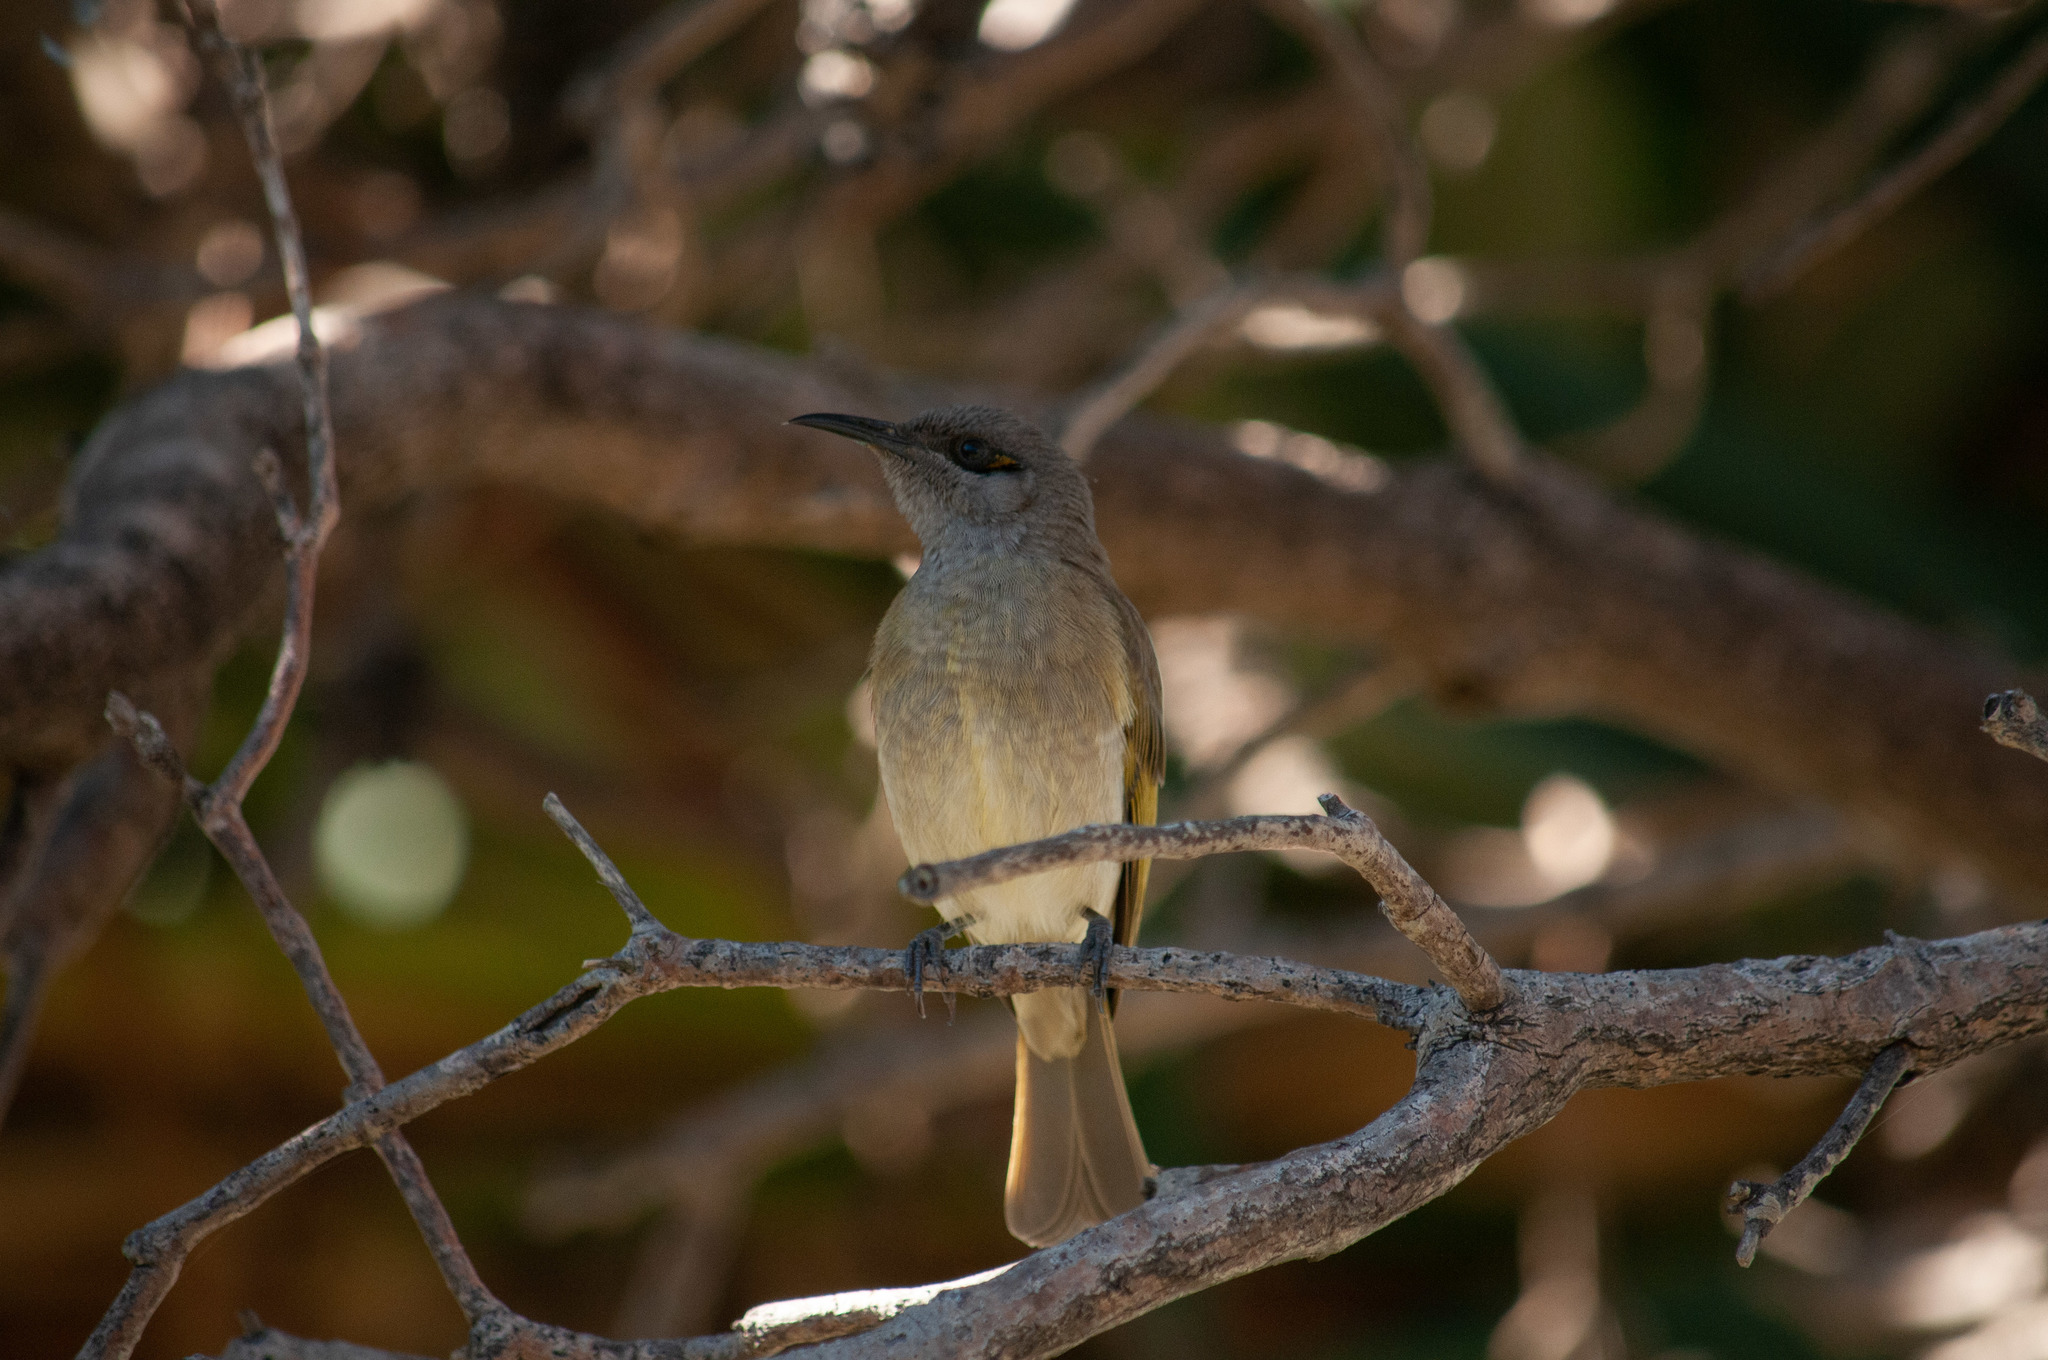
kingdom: Animalia
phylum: Chordata
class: Aves
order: Passeriformes
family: Meliphagidae
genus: Lichmera
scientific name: Lichmera indistincta
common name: Brown honeyeater
